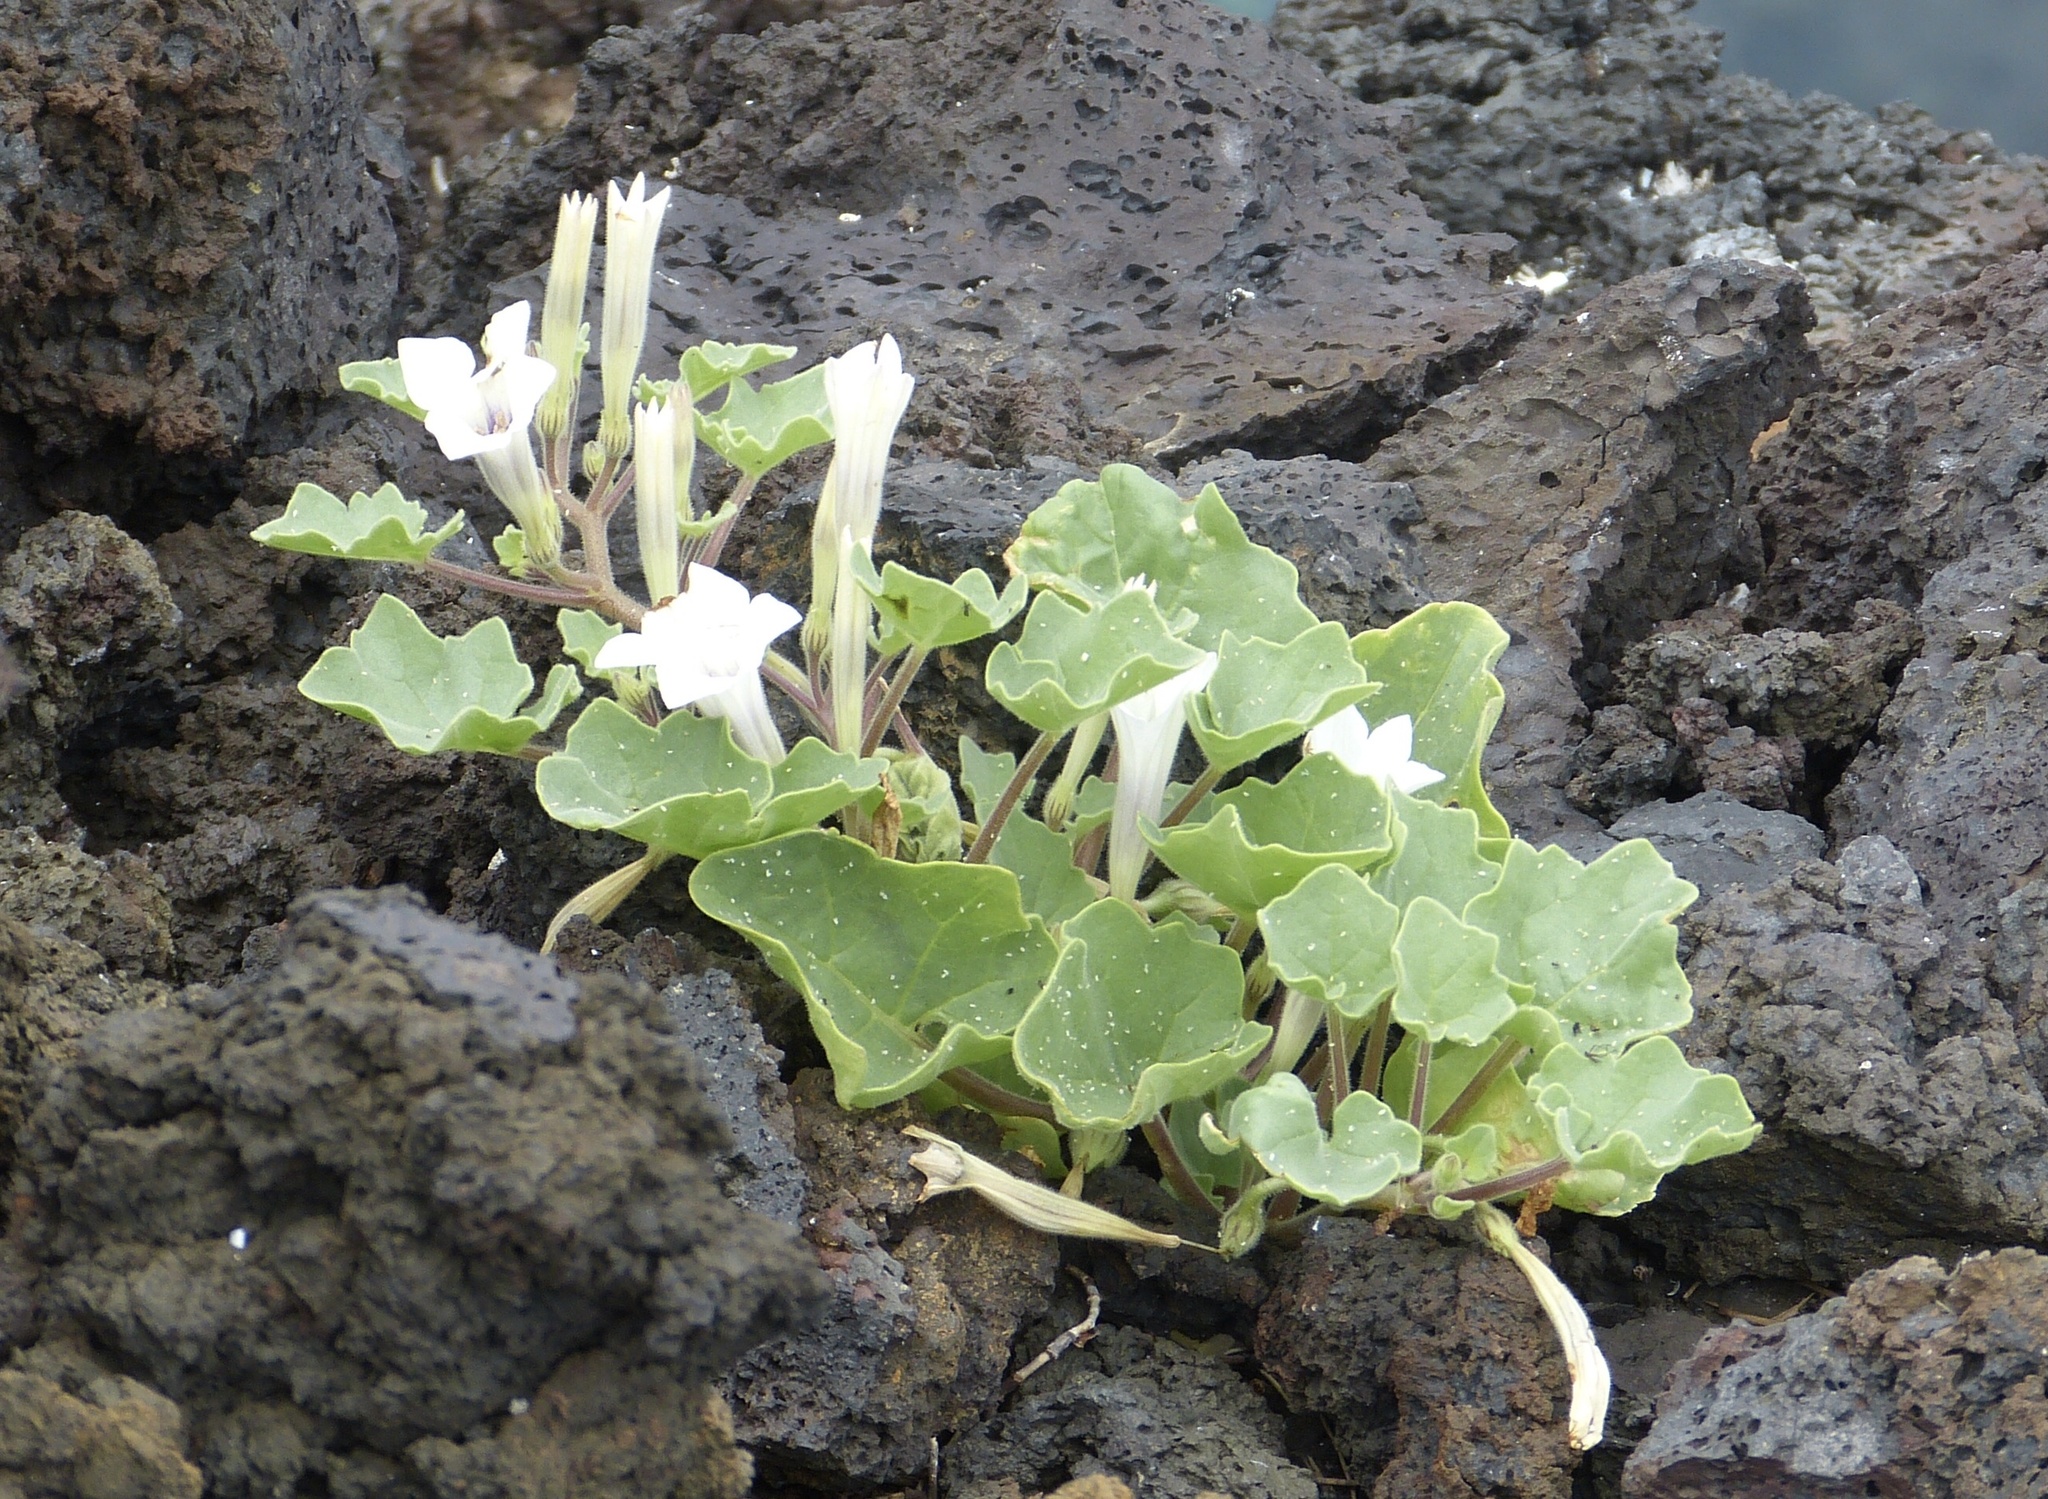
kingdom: Plantae
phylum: Tracheophyta
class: Magnoliopsida
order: Solanales
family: Solanaceae
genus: Exodeconus
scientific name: Exodeconus miersii
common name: Galapagos shore petunia
